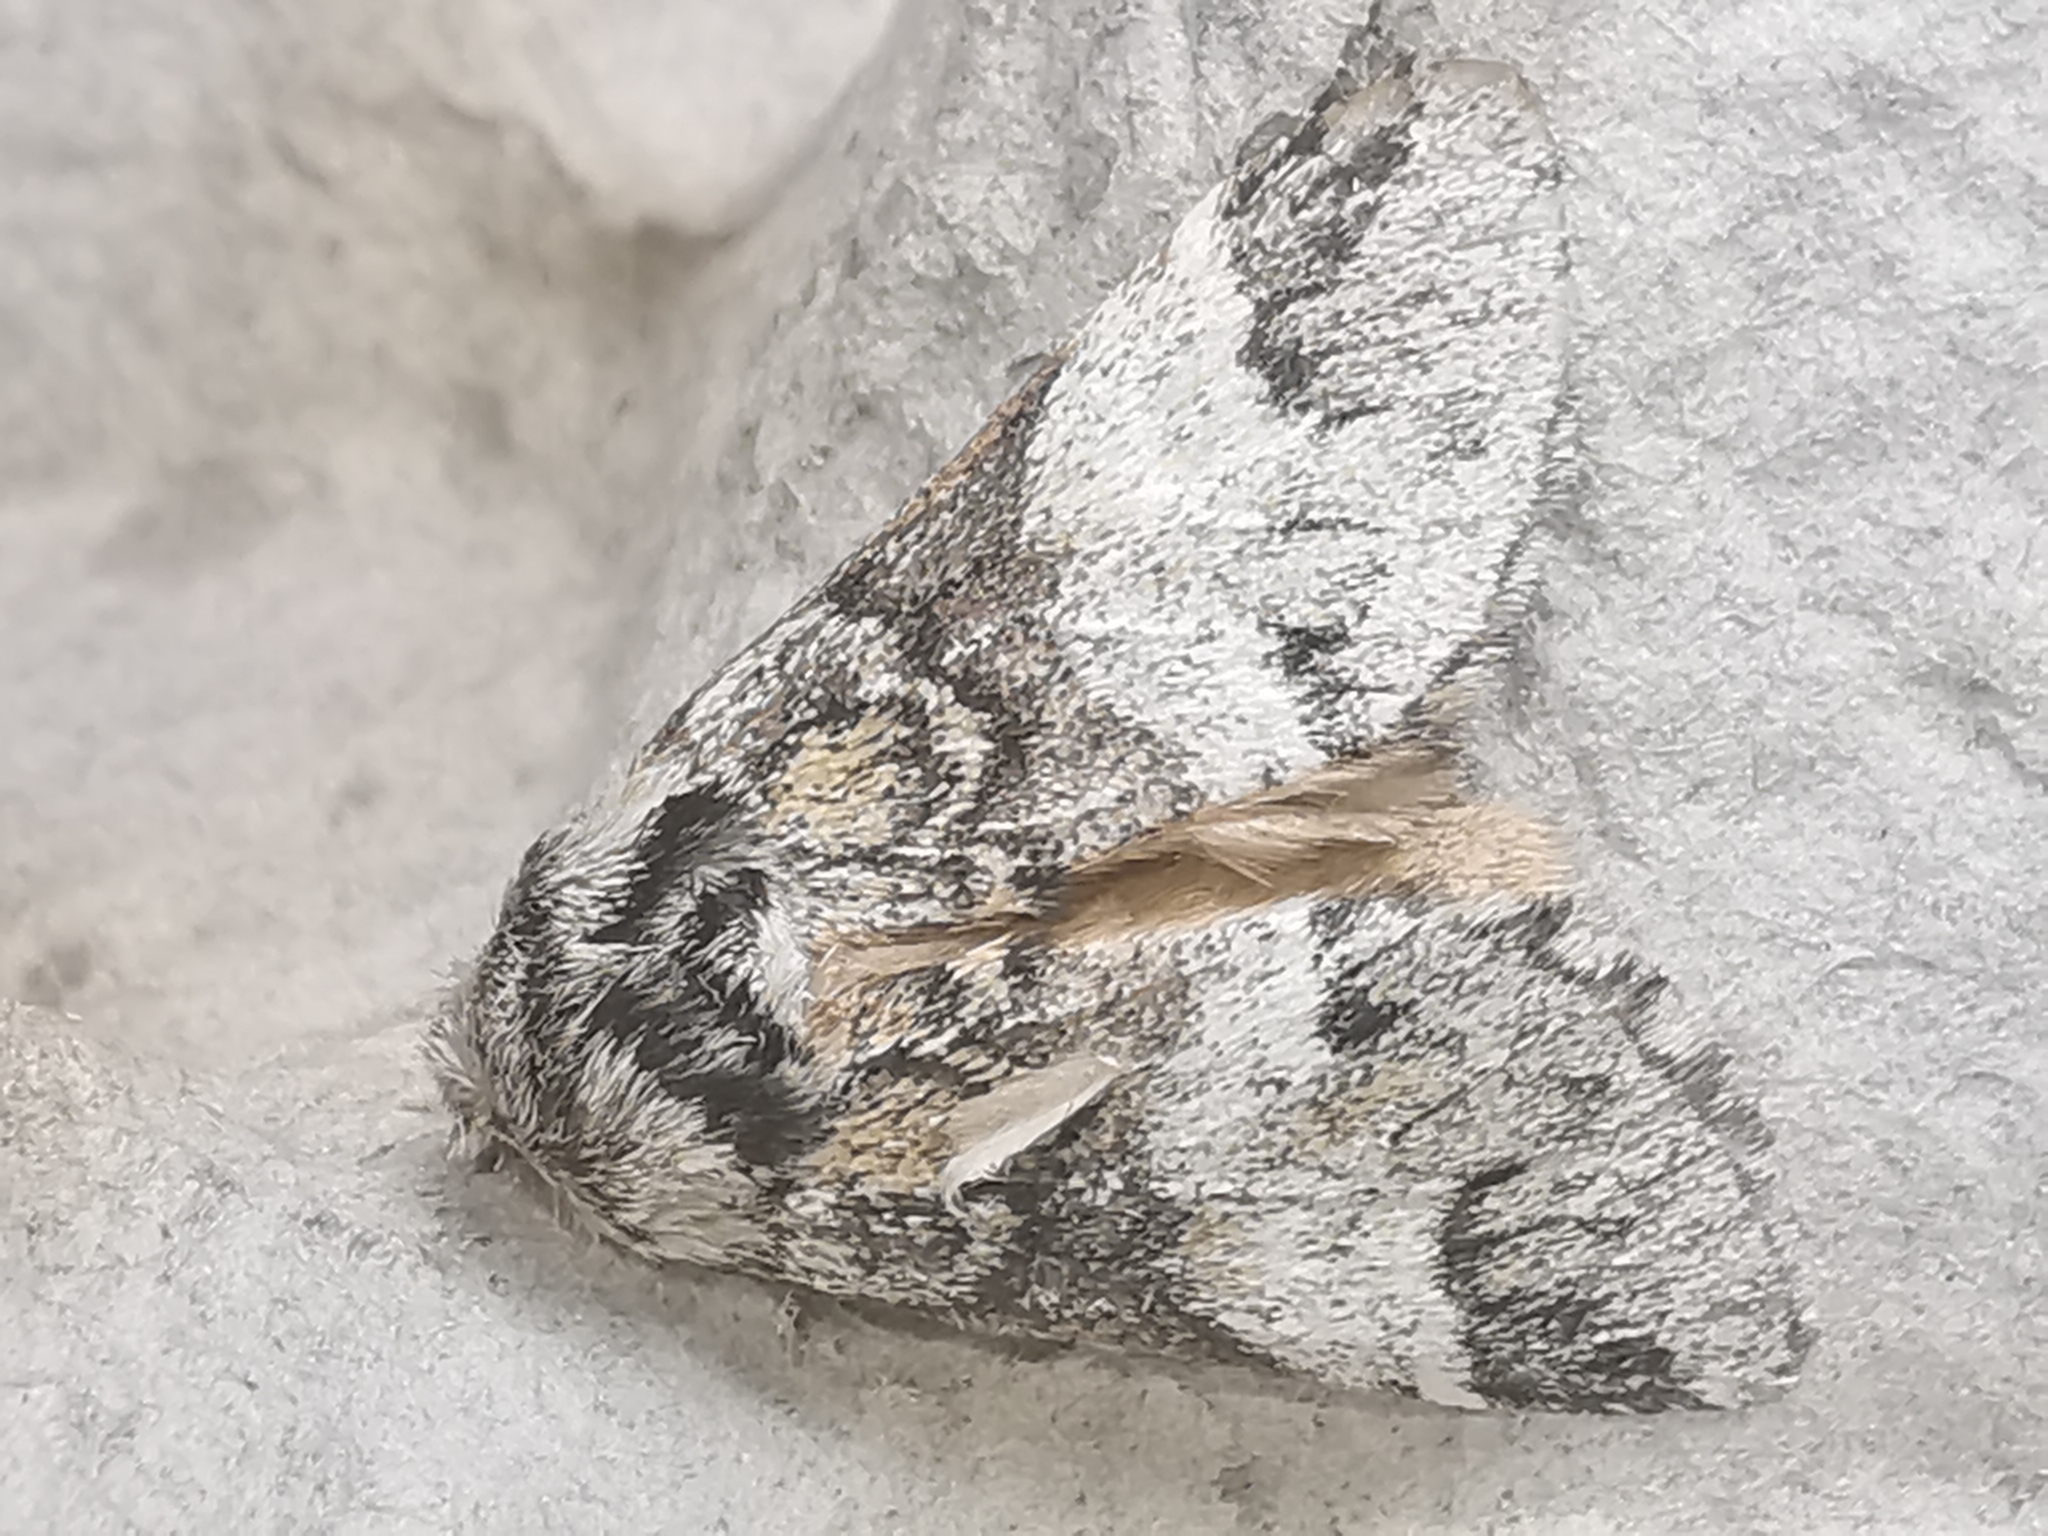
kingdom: Animalia
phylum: Arthropoda
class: Insecta
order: Lepidoptera
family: Notodontidae
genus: Drymonia
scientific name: Drymonia dodonaea
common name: Marbled brown
